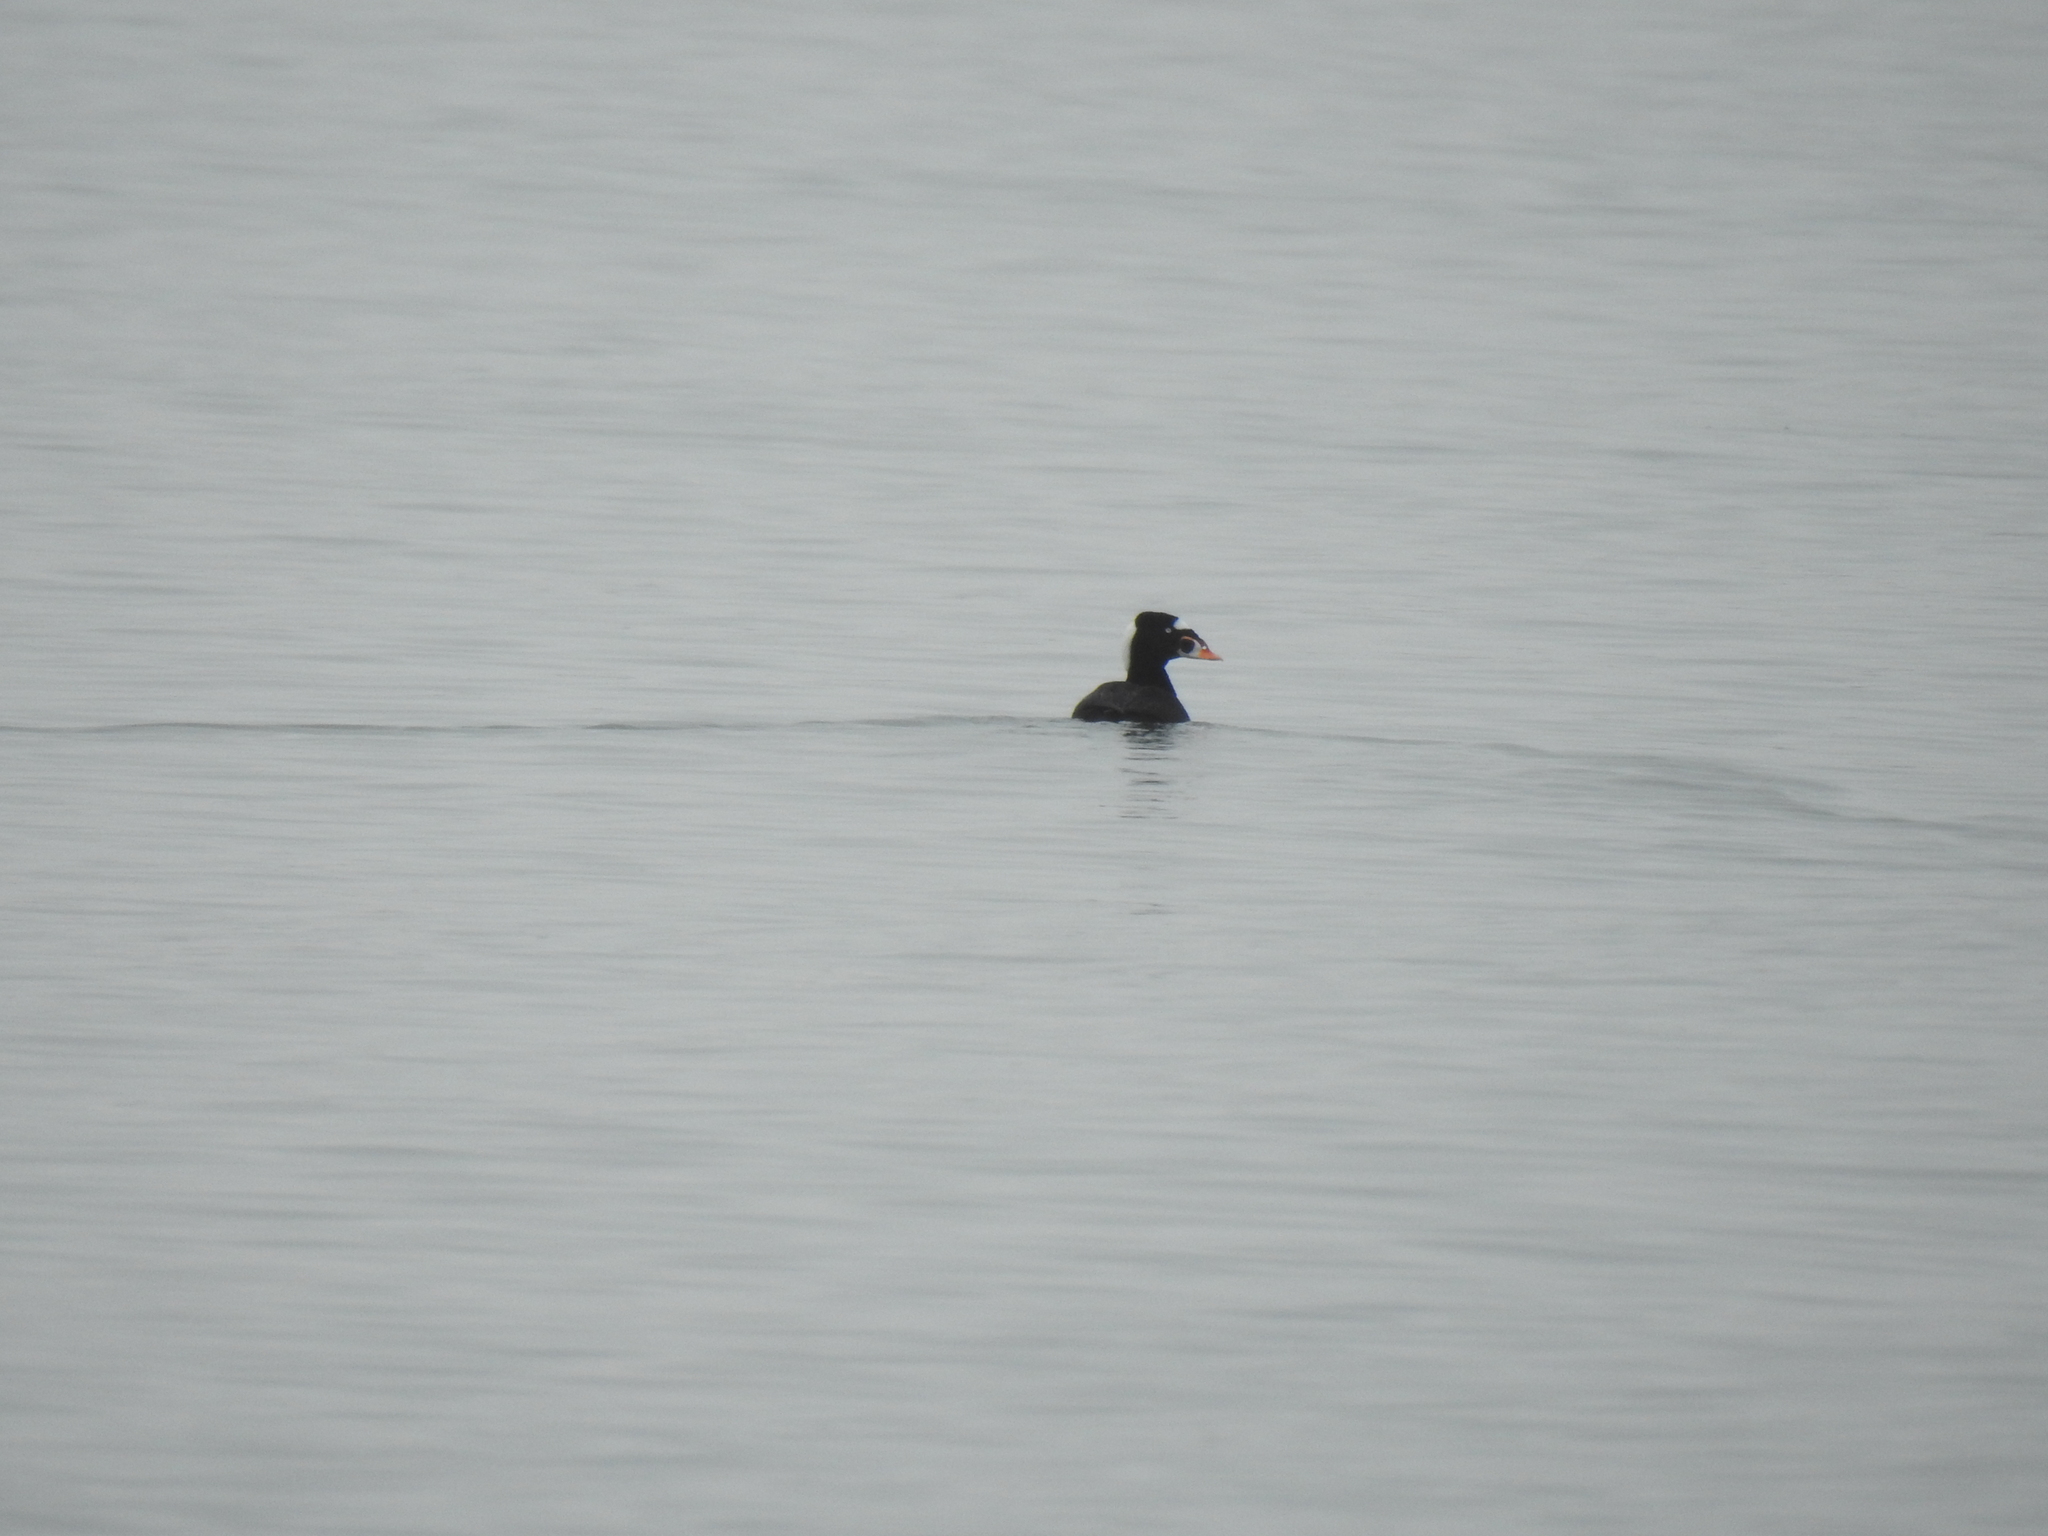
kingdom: Animalia
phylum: Chordata
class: Aves
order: Anseriformes
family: Anatidae
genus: Melanitta
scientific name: Melanitta perspicillata
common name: Surf scoter
